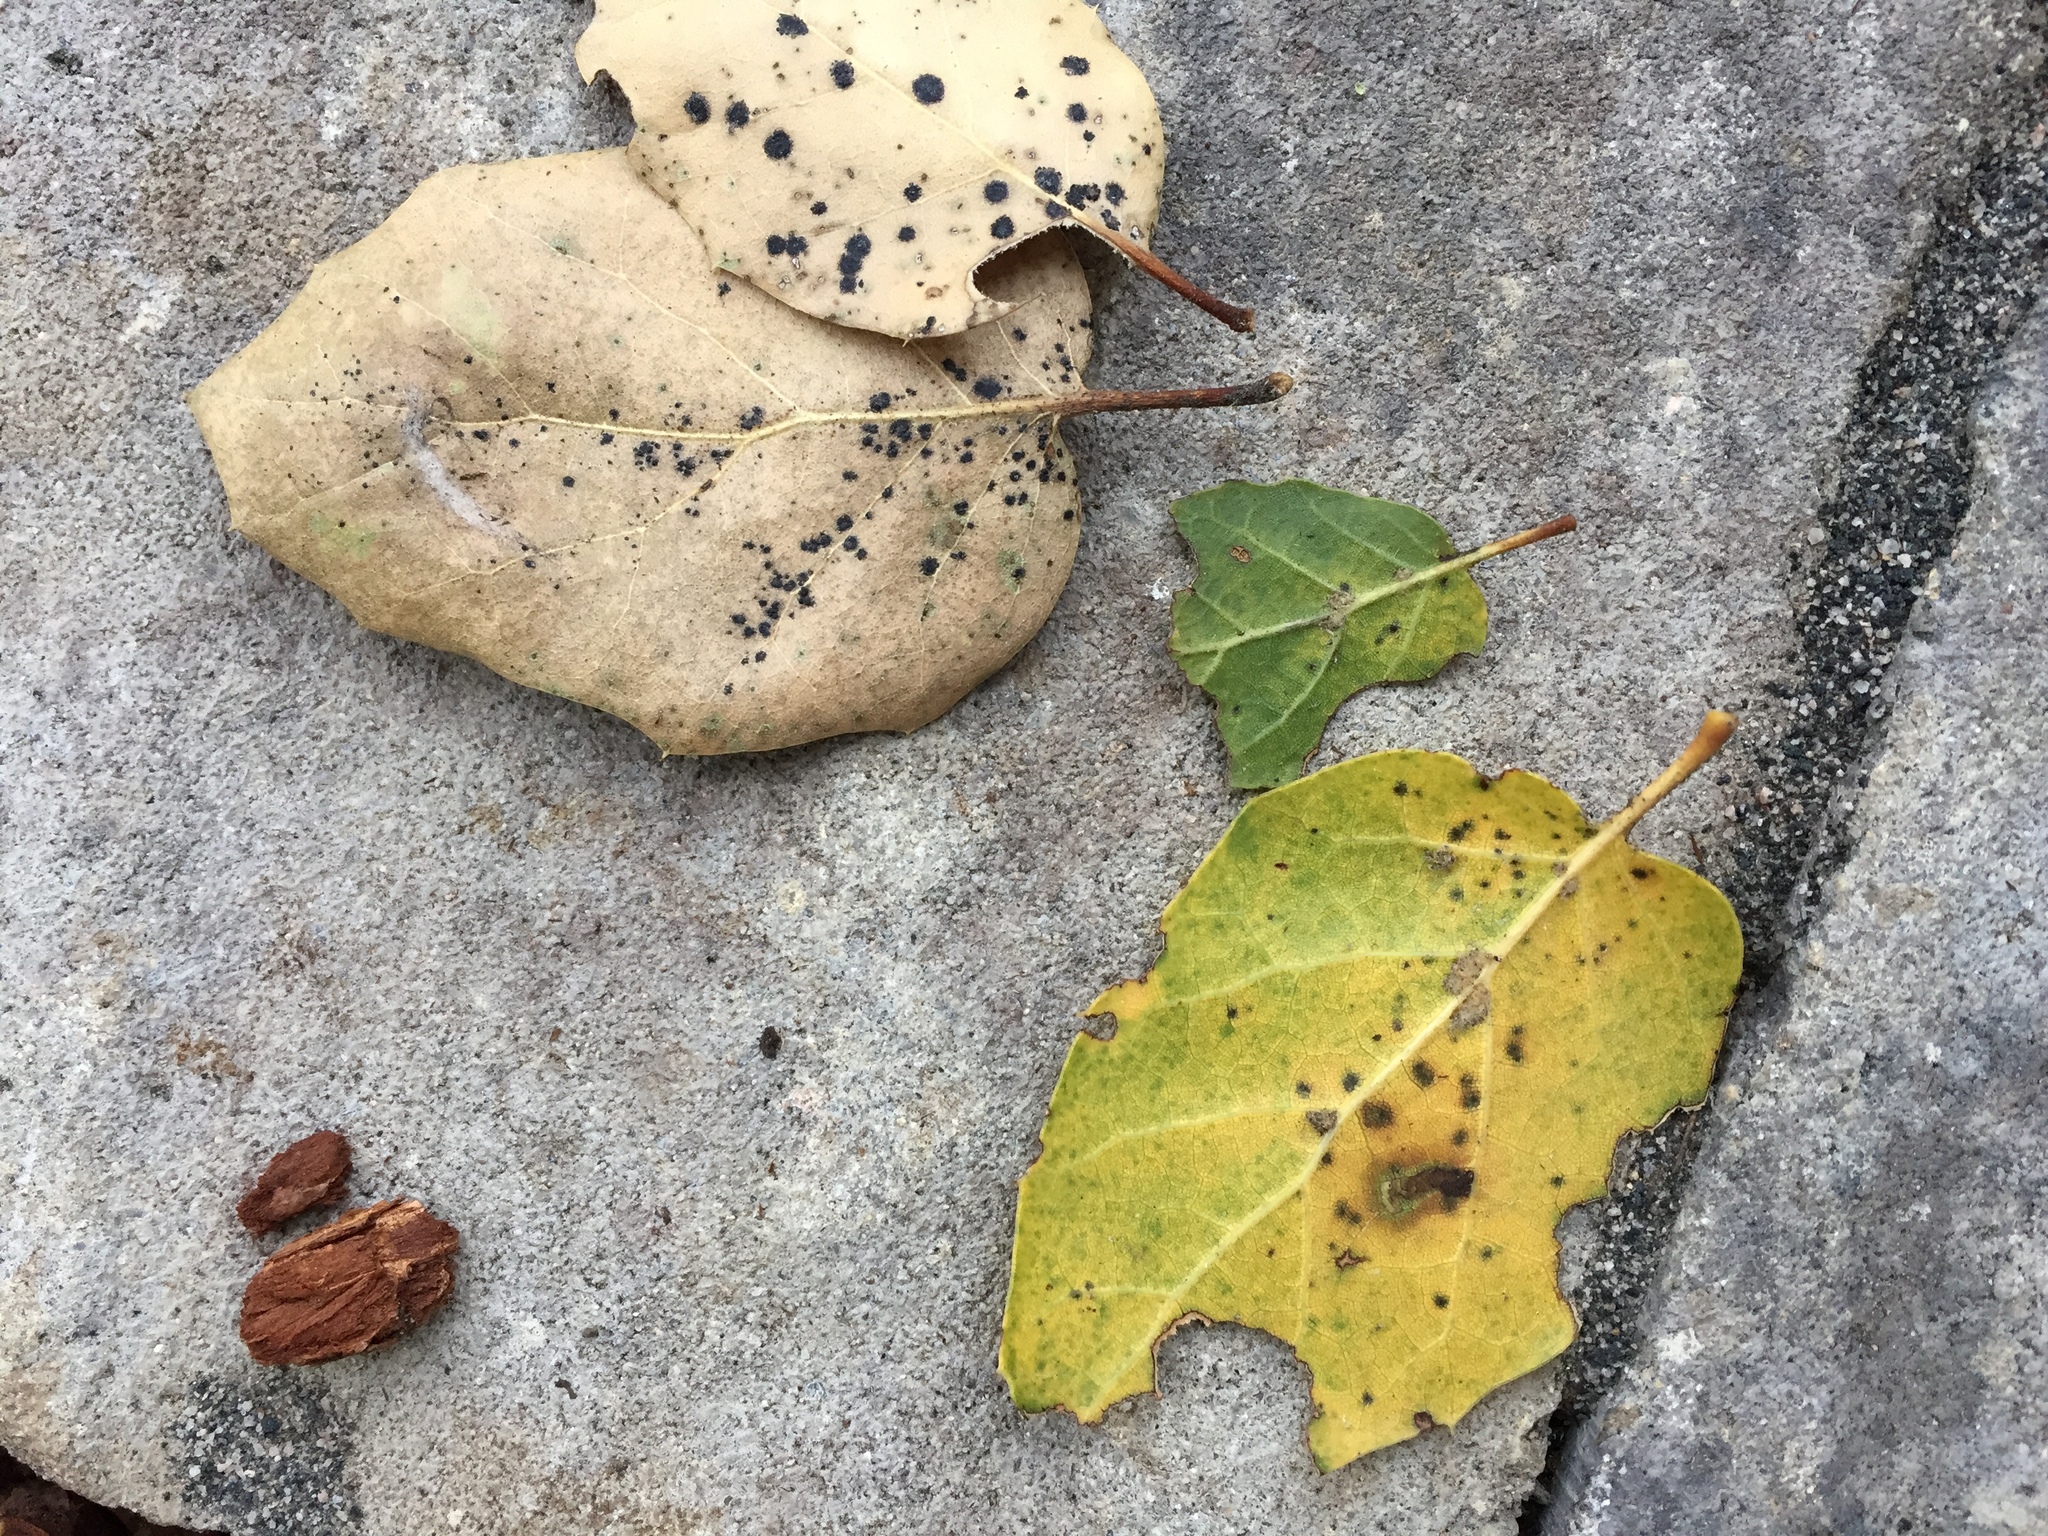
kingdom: Plantae
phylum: Tracheophyta
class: Magnoliopsida
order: Fagales
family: Fagaceae
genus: Quercus
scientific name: Quercus agrifolia
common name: California live oak
